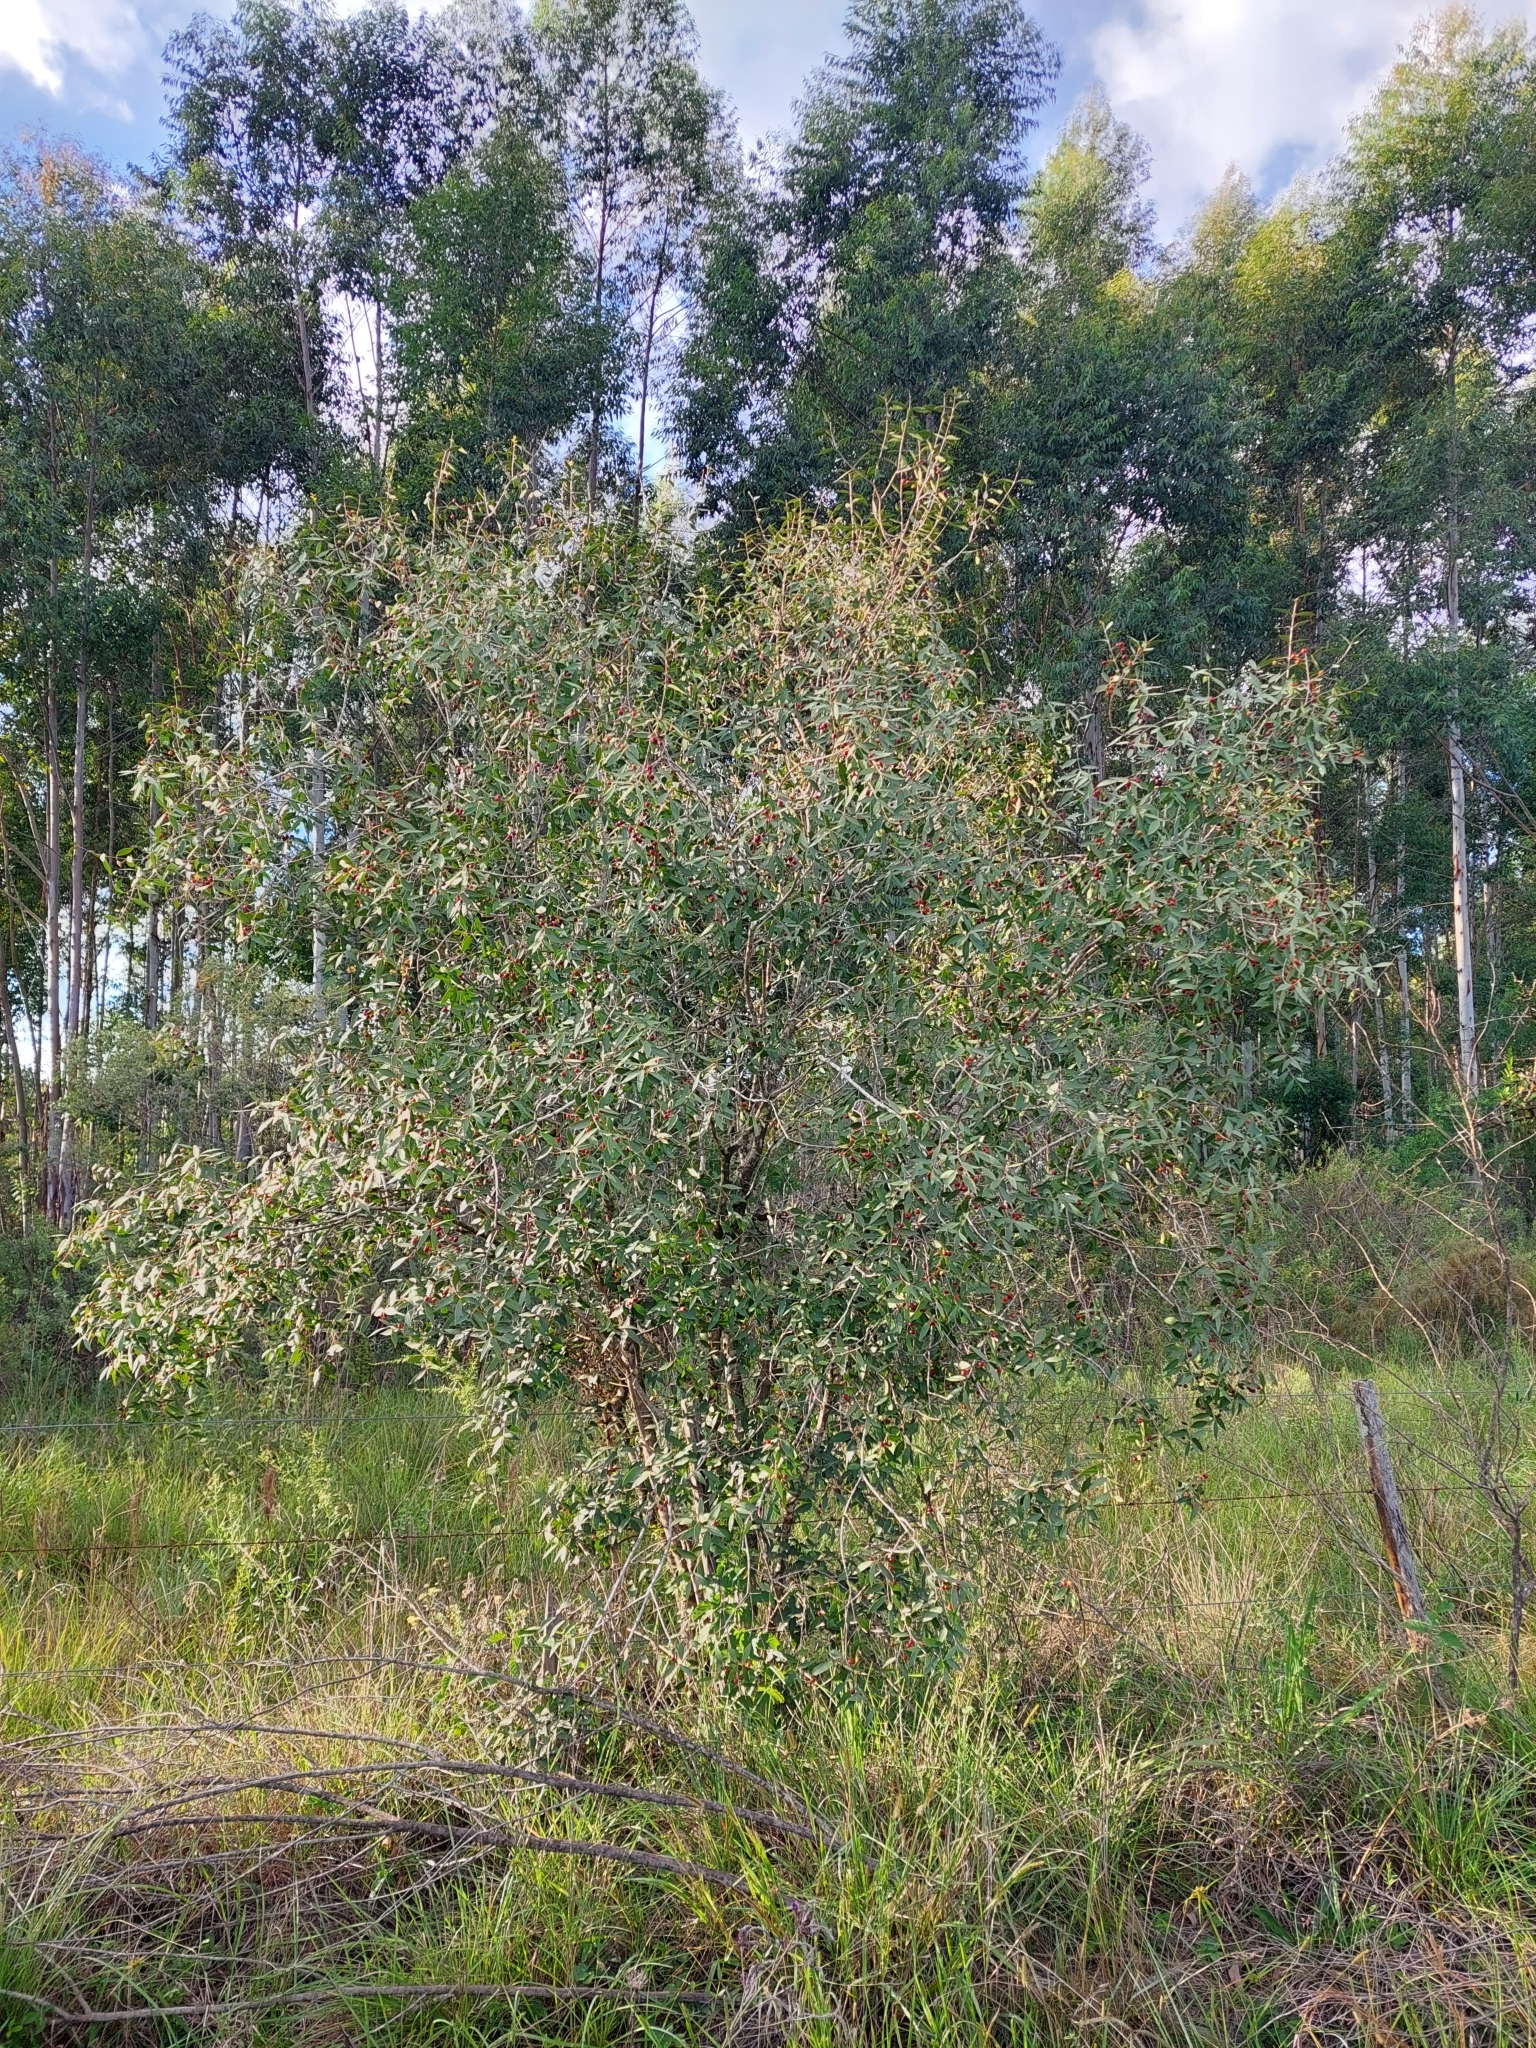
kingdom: Plantae
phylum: Tracheophyta
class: Magnoliopsida
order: Myrtales
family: Myrtaceae
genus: Blepharocalyx
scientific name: Blepharocalyx salicifolius
